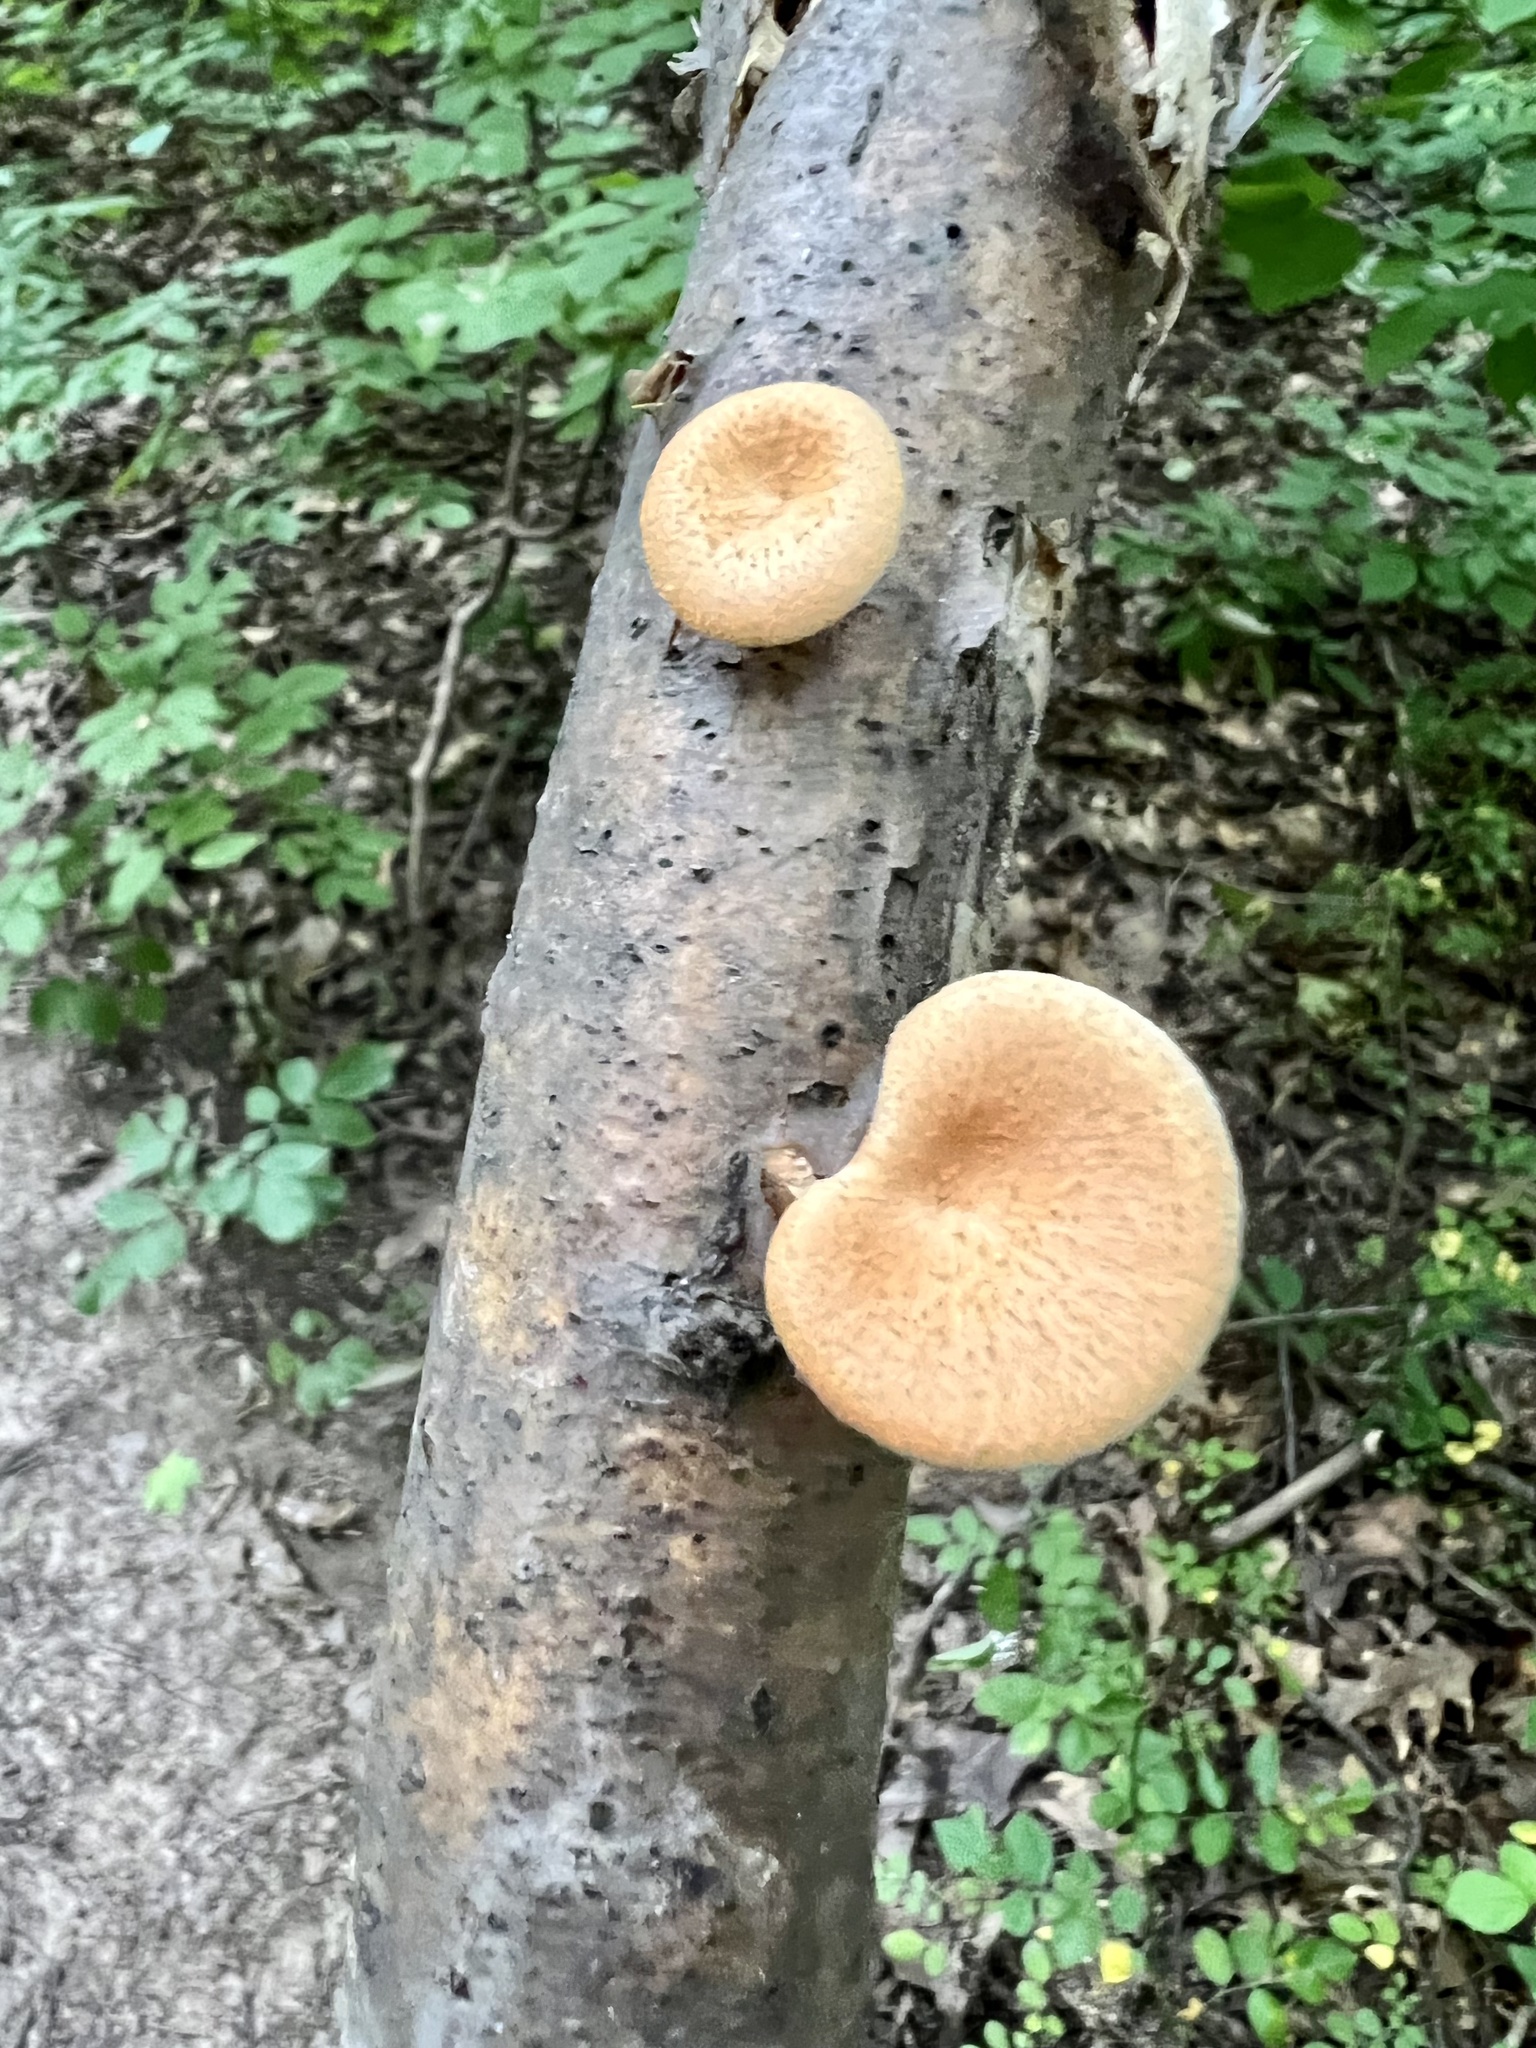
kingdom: Fungi
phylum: Basidiomycota
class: Agaricomycetes
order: Polyporales
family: Polyporaceae
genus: Neofavolus
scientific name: Neofavolus alveolaris
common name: Hexagonal-pored polypore
